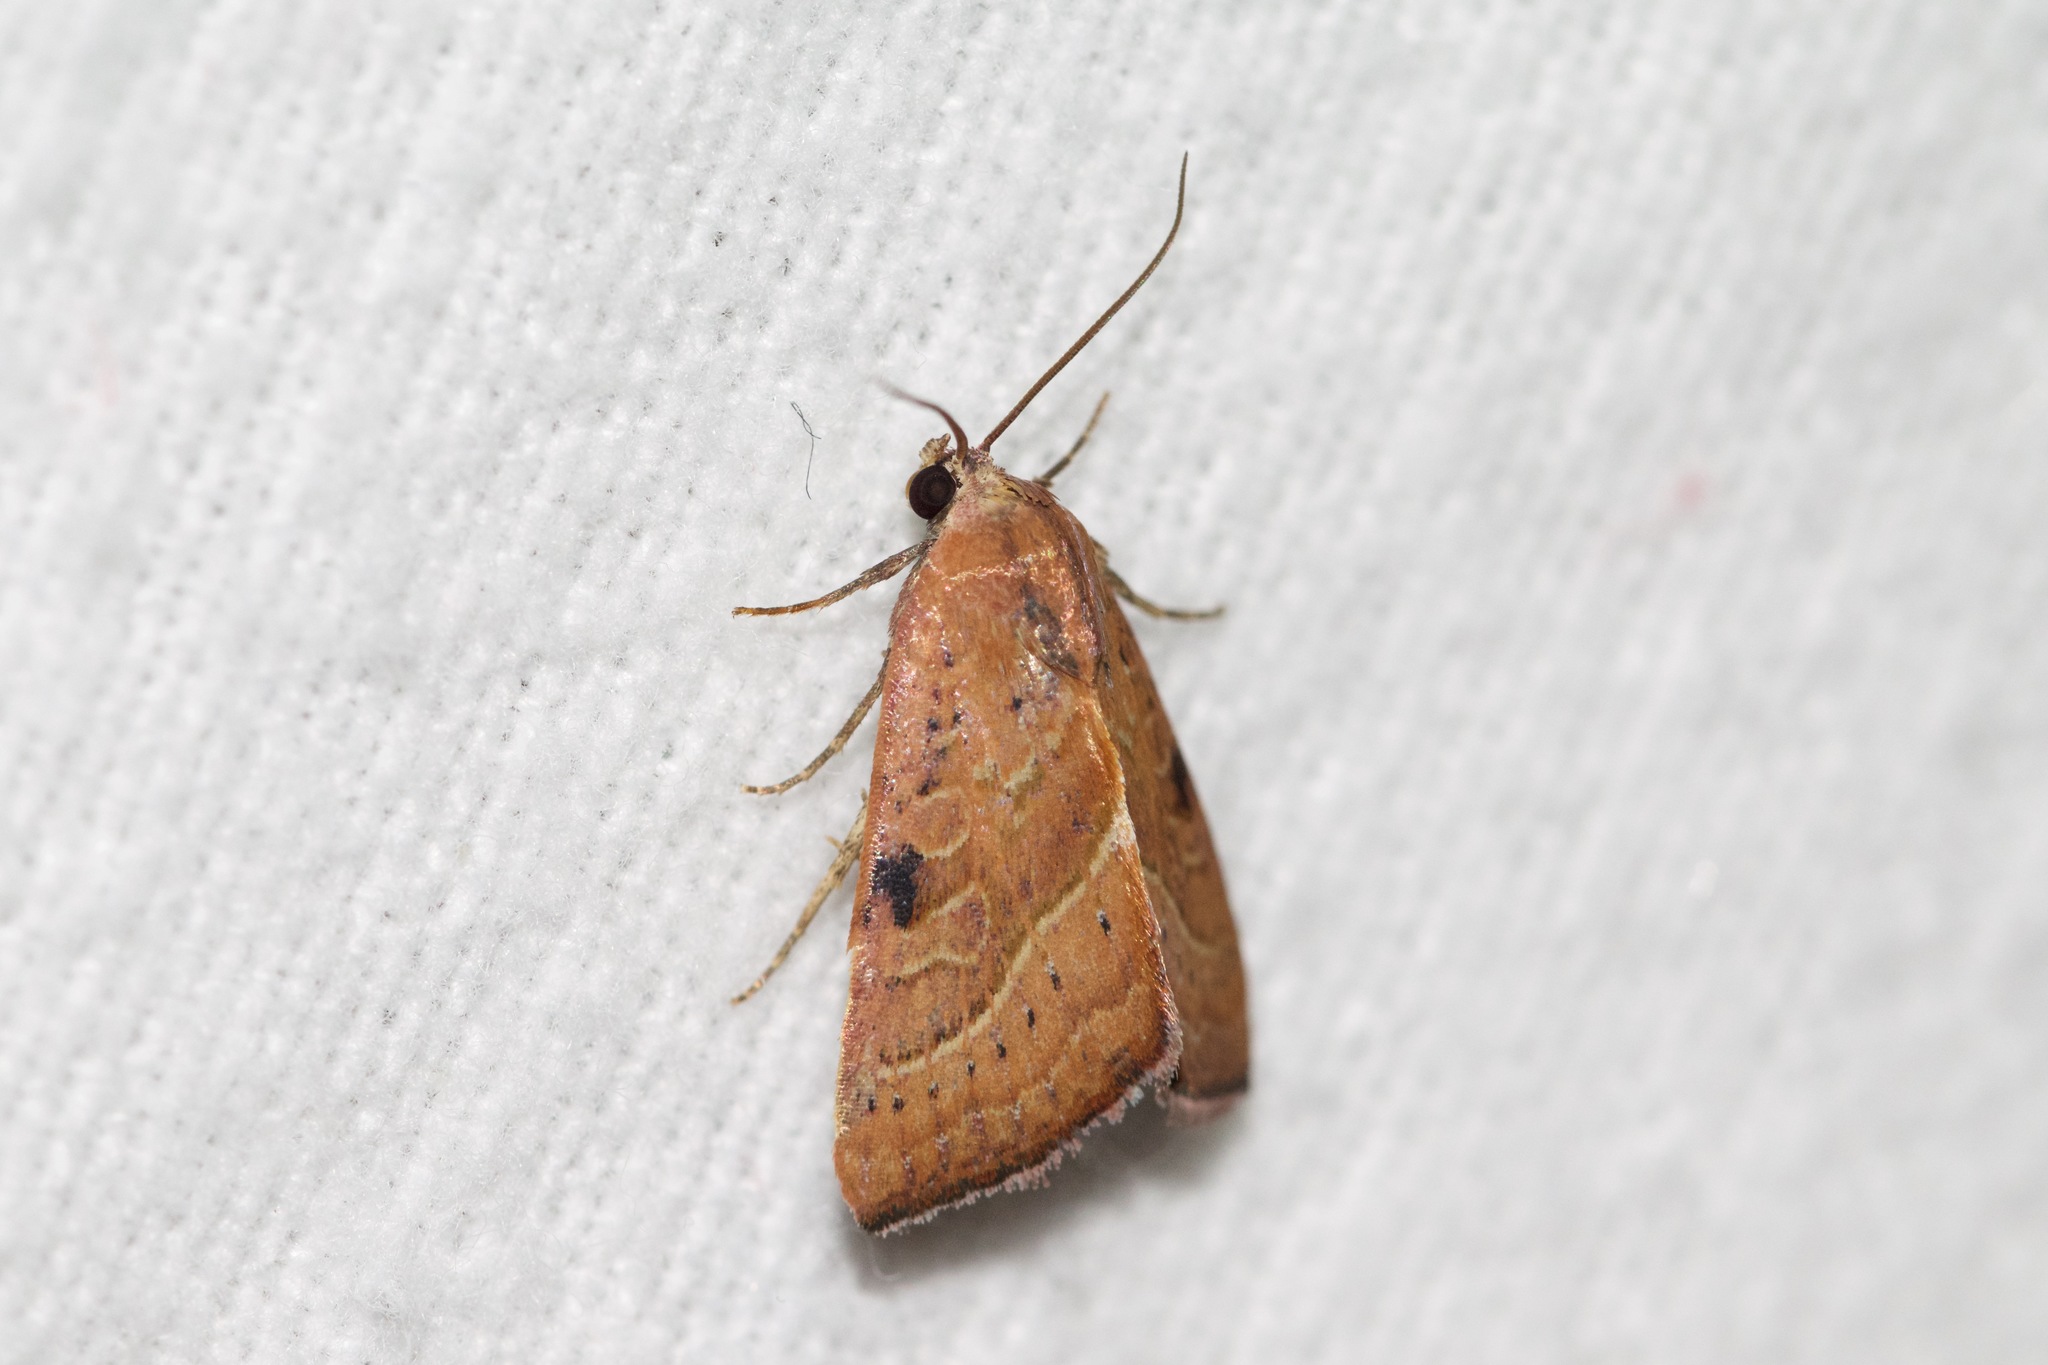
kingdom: Animalia
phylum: Arthropoda
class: Insecta
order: Lepidoptera
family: Noctuidae
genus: Galgula
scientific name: Galgula partita
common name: Wedgeling
